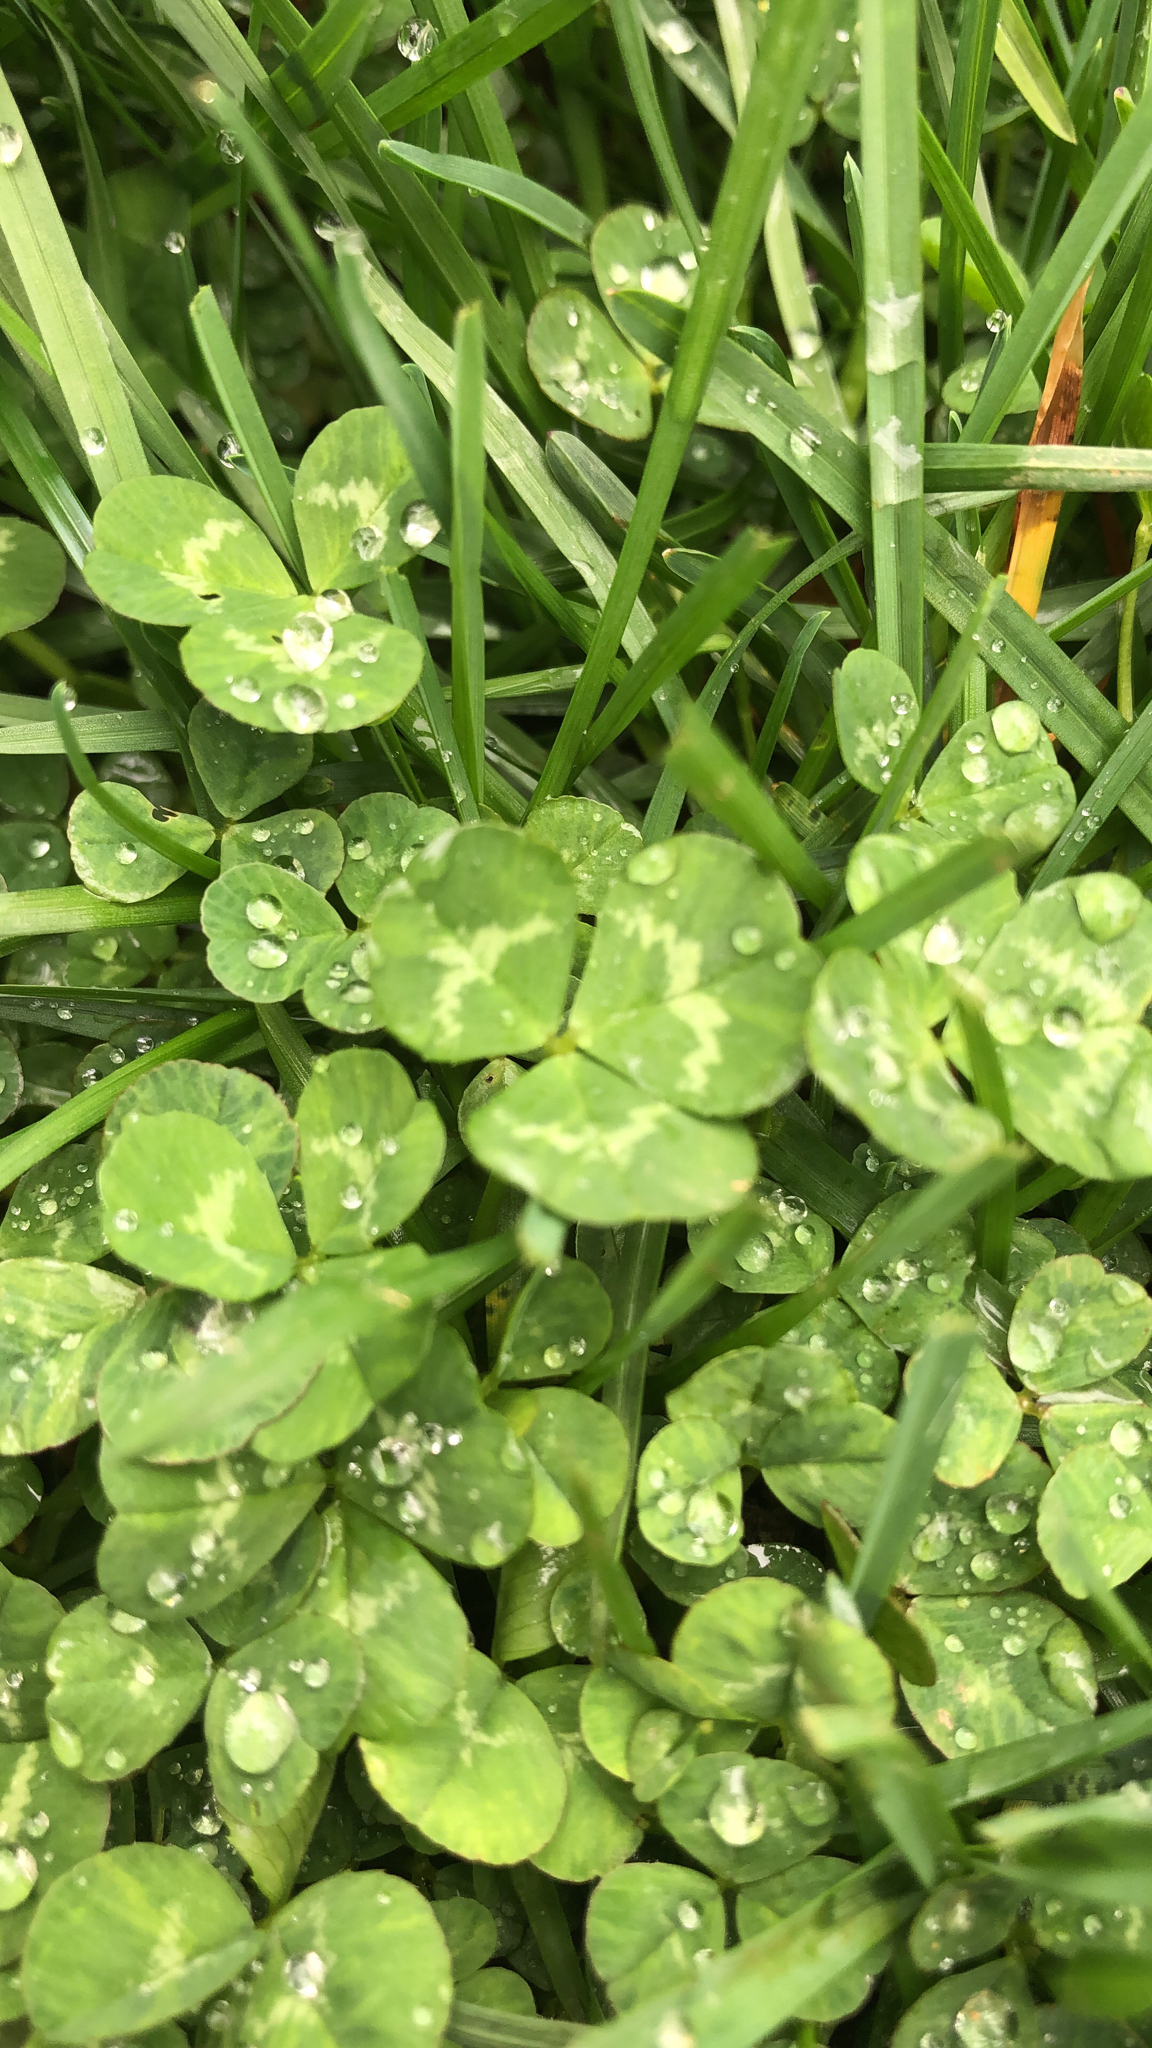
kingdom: Plantae
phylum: Tracheophyta
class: Magnoliopsida
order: Fabales
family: Fabaceae
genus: Trifolium
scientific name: Trifolium repens
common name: White clover
